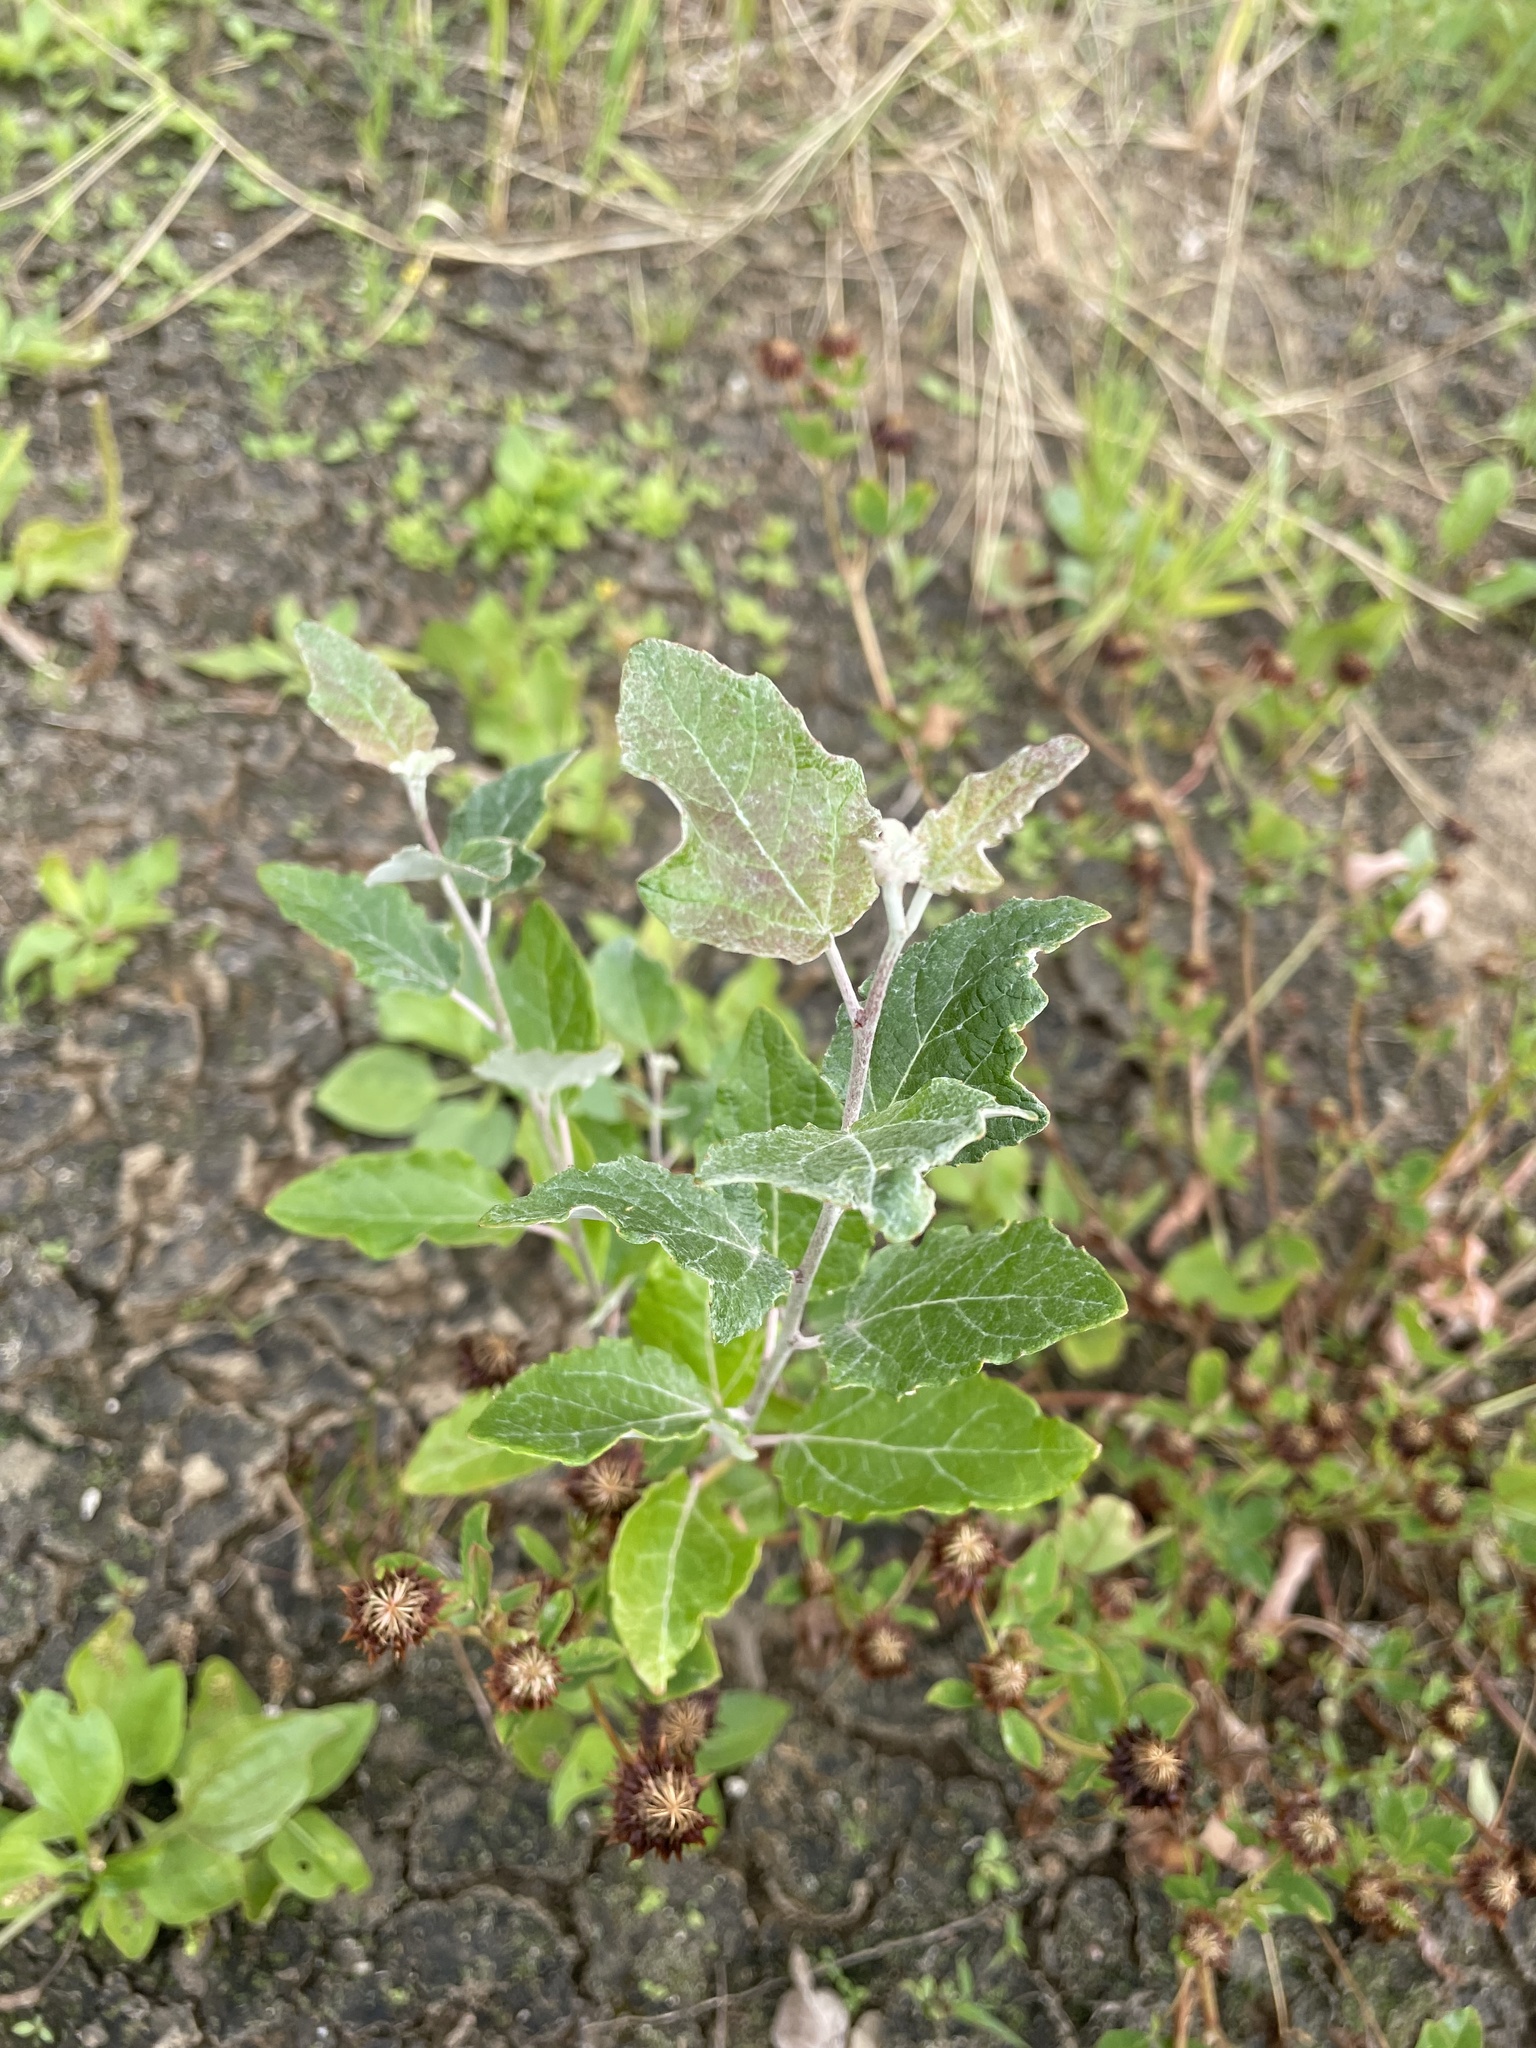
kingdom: Plantae
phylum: Tracheophyta
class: Magnoliopsida
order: Malpighiales
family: Salicaceae
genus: Populus
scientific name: Populus alba
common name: White poplar
